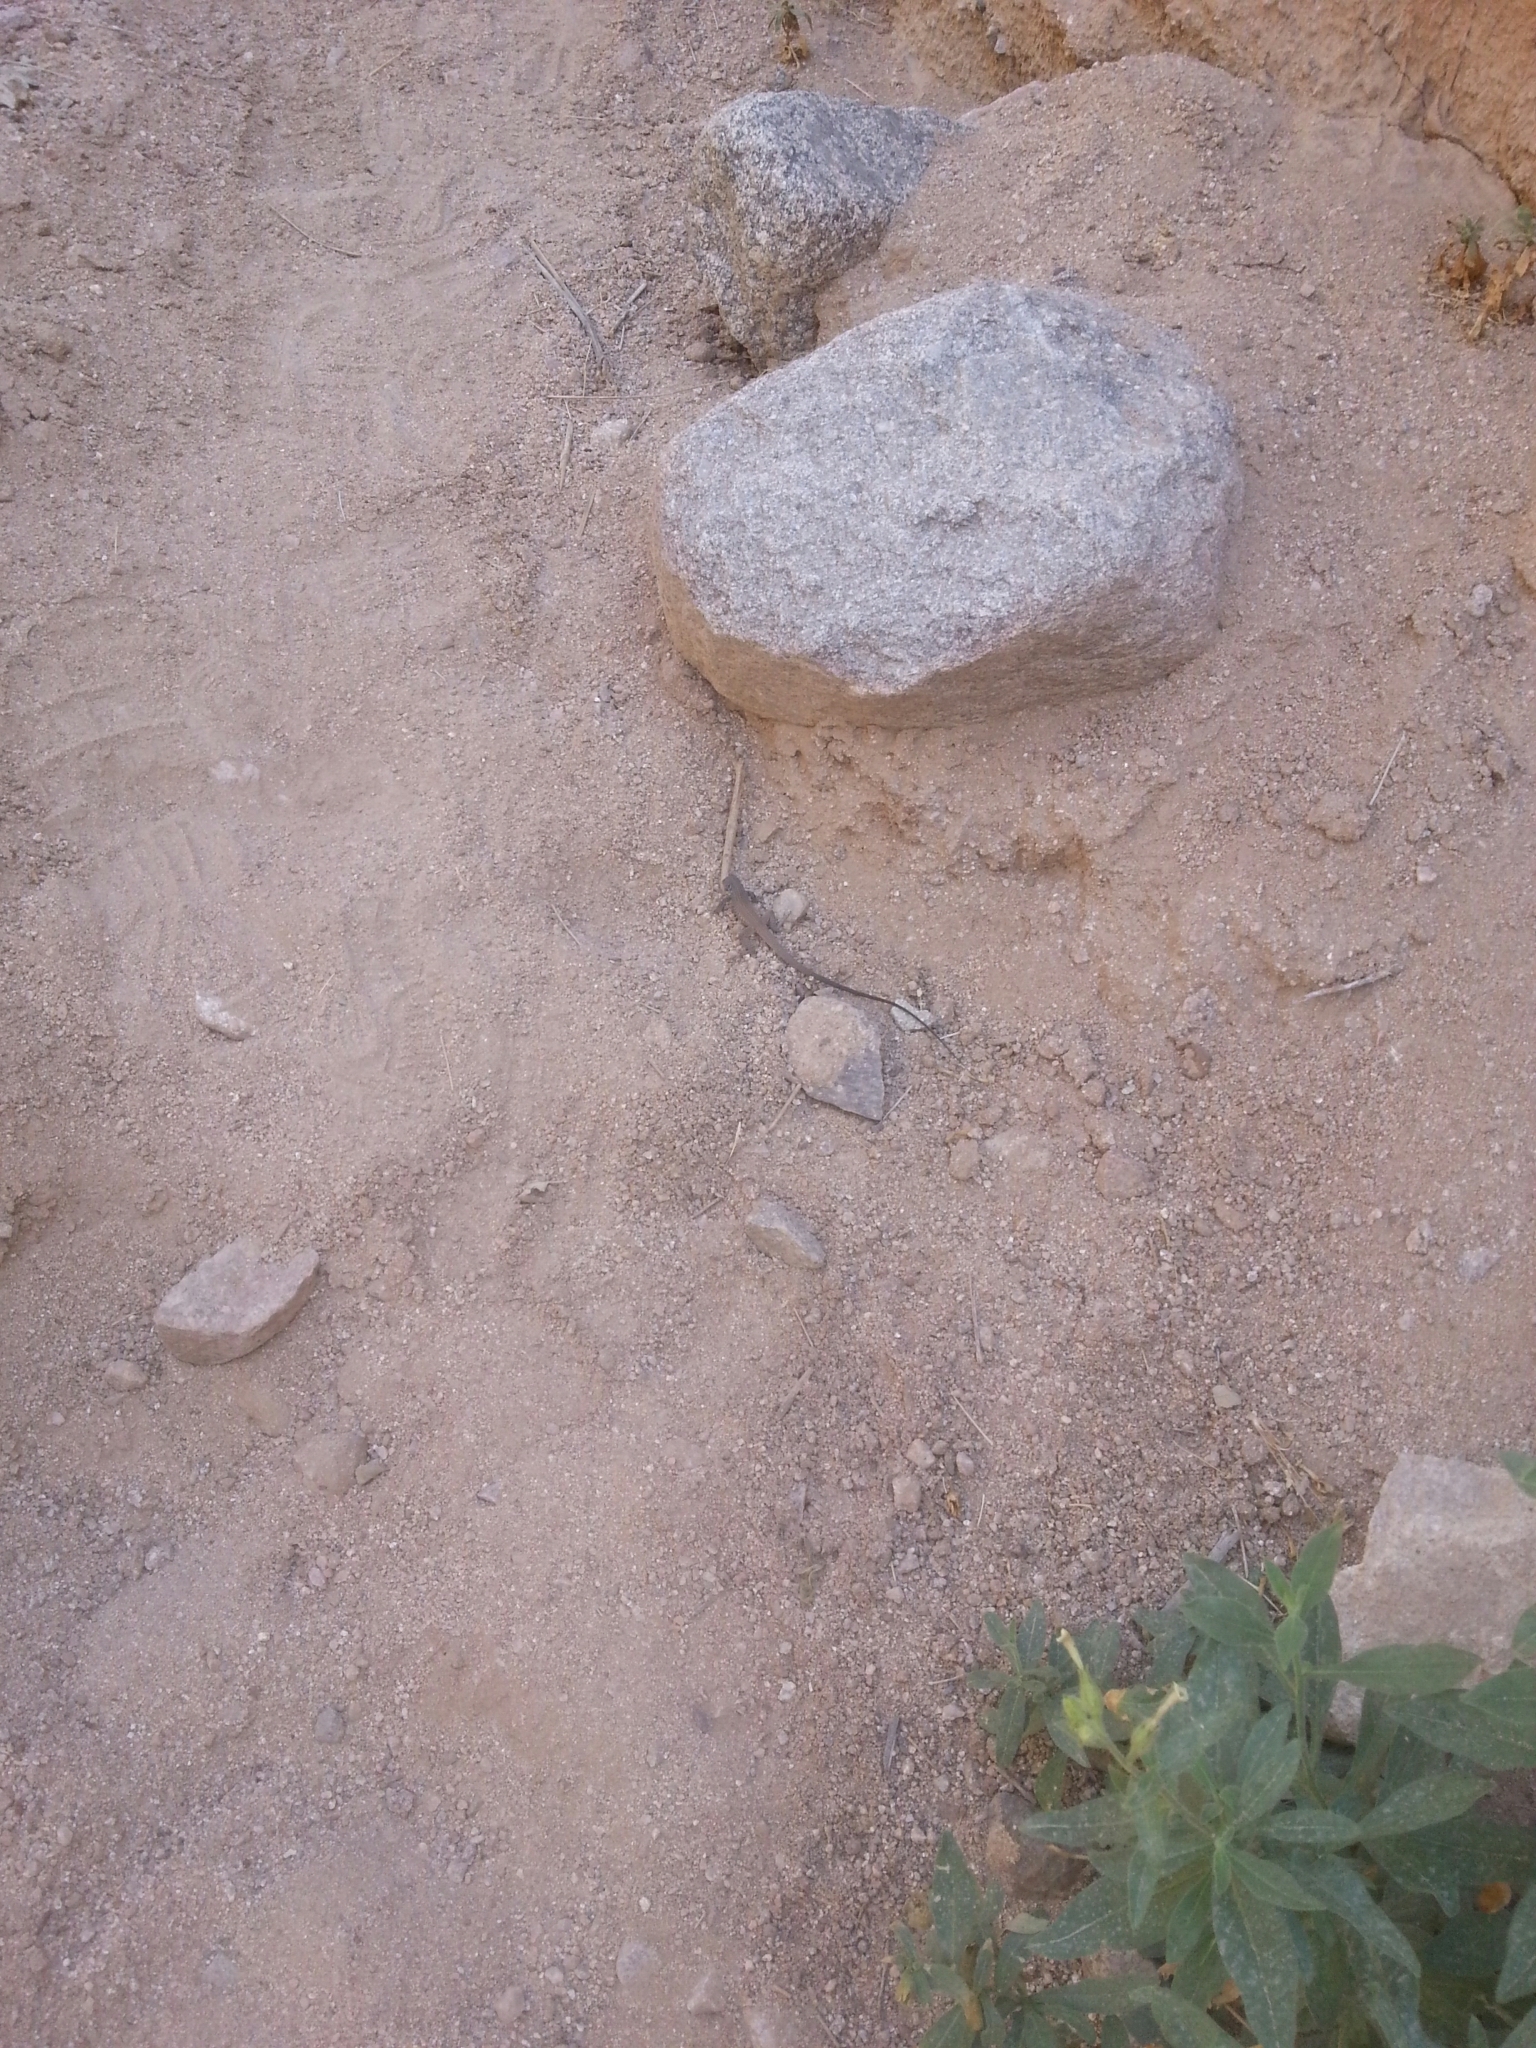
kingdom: Animalia
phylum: Chordata
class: Squamata
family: Teiidae
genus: Aspidoscelis
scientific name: Aspidoscelis tigris
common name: Tiger whiptail
